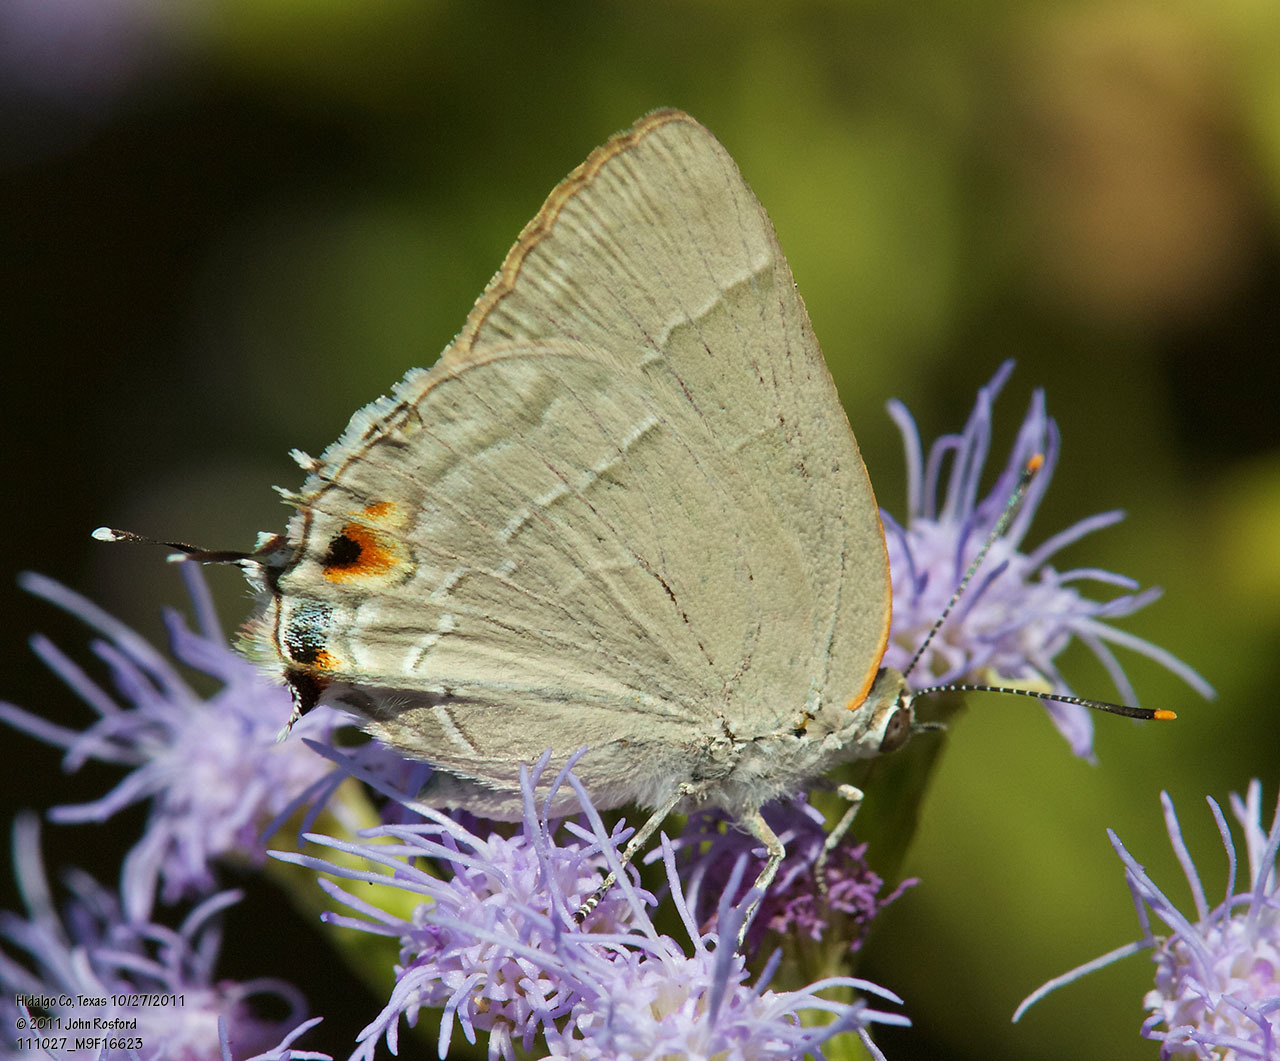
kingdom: Animalia
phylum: Arthropoda
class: Insecta
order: Lepidoptera
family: Lycaenidae
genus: Thecla
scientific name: Thecla marius
